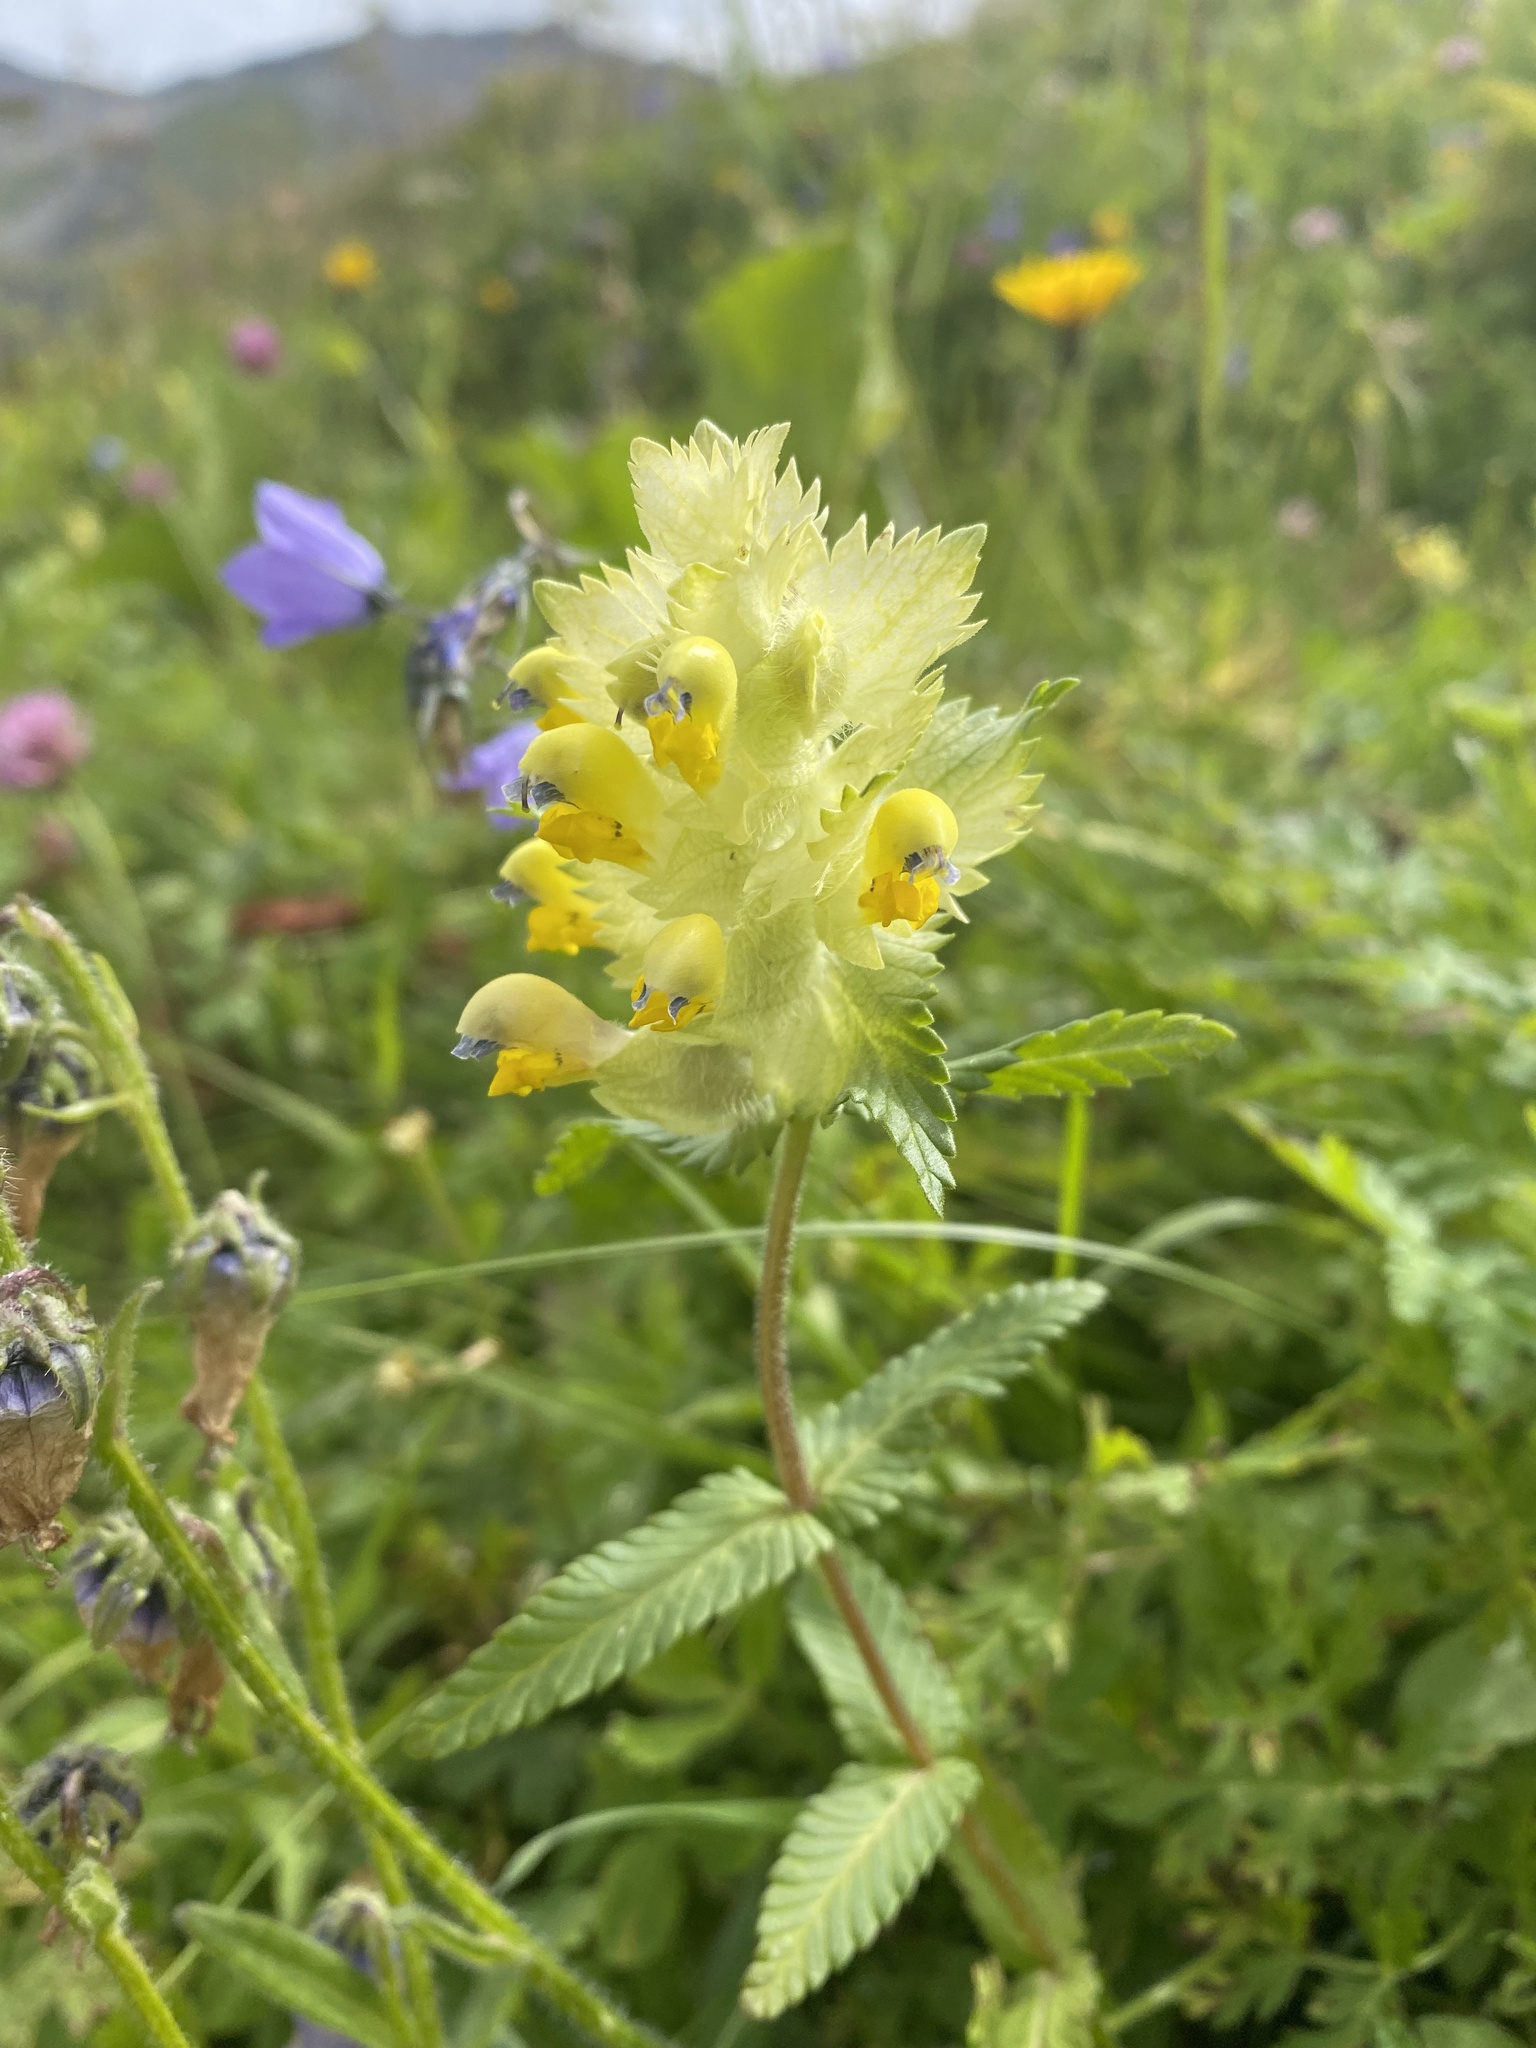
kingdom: Plantae
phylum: Tracheophyta
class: Magnoliopsida
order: Lamiales
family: Orobanchaceae
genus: Rhinanthus
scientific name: Rhinanthus alectorolophus
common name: Greater yellow-rattle
